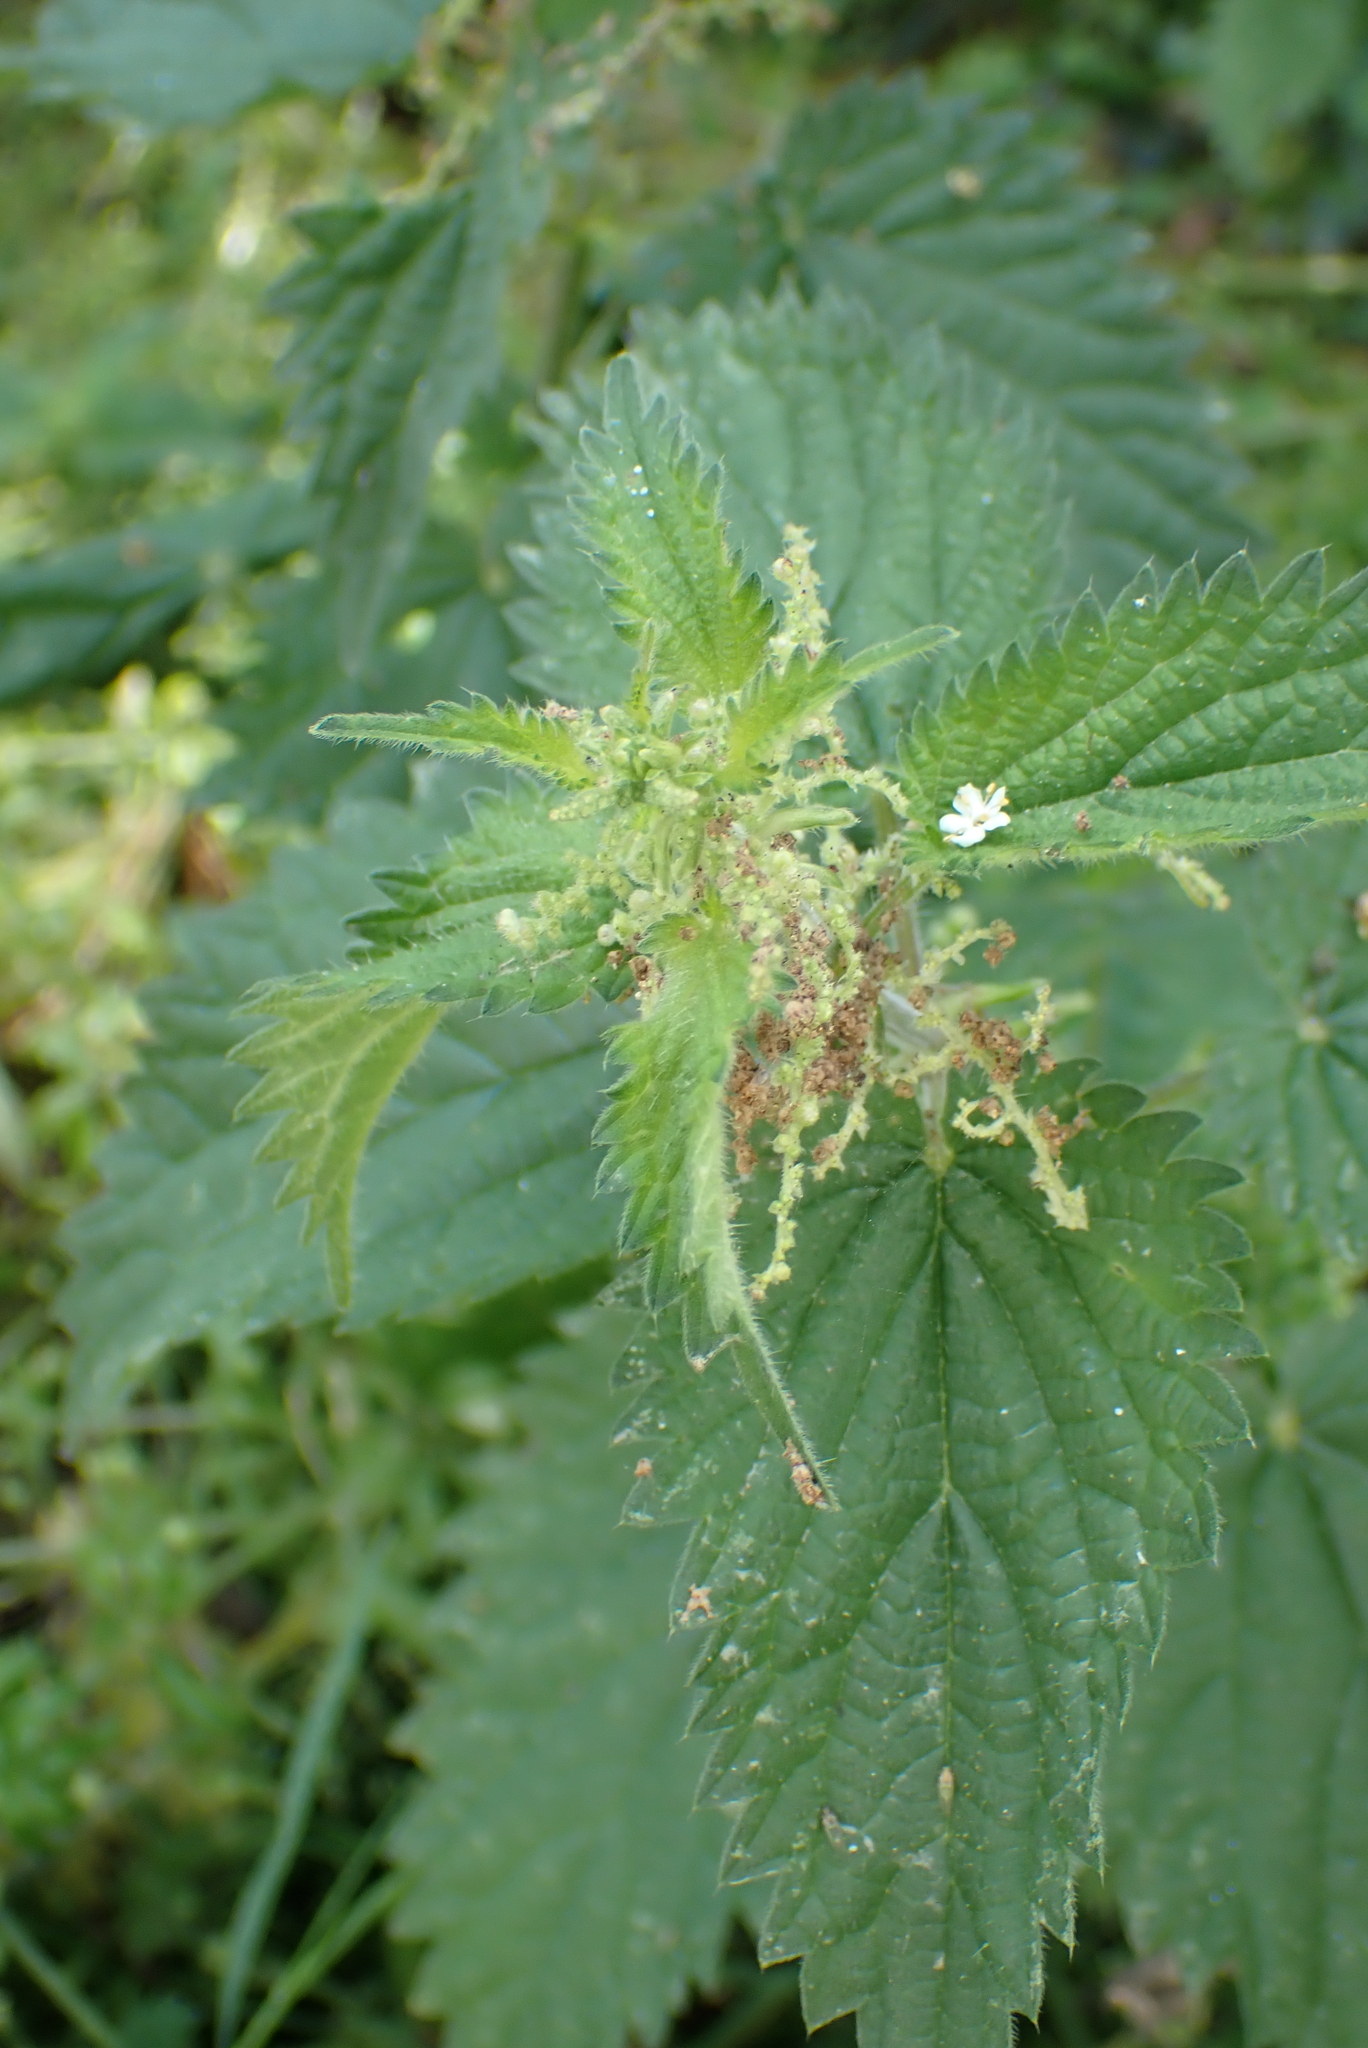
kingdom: Plantae
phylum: Tracheophyta
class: Magnoliopsida
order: Rosales
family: Urticaceae
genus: Urtica
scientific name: Urtica dioica
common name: Common nettle
